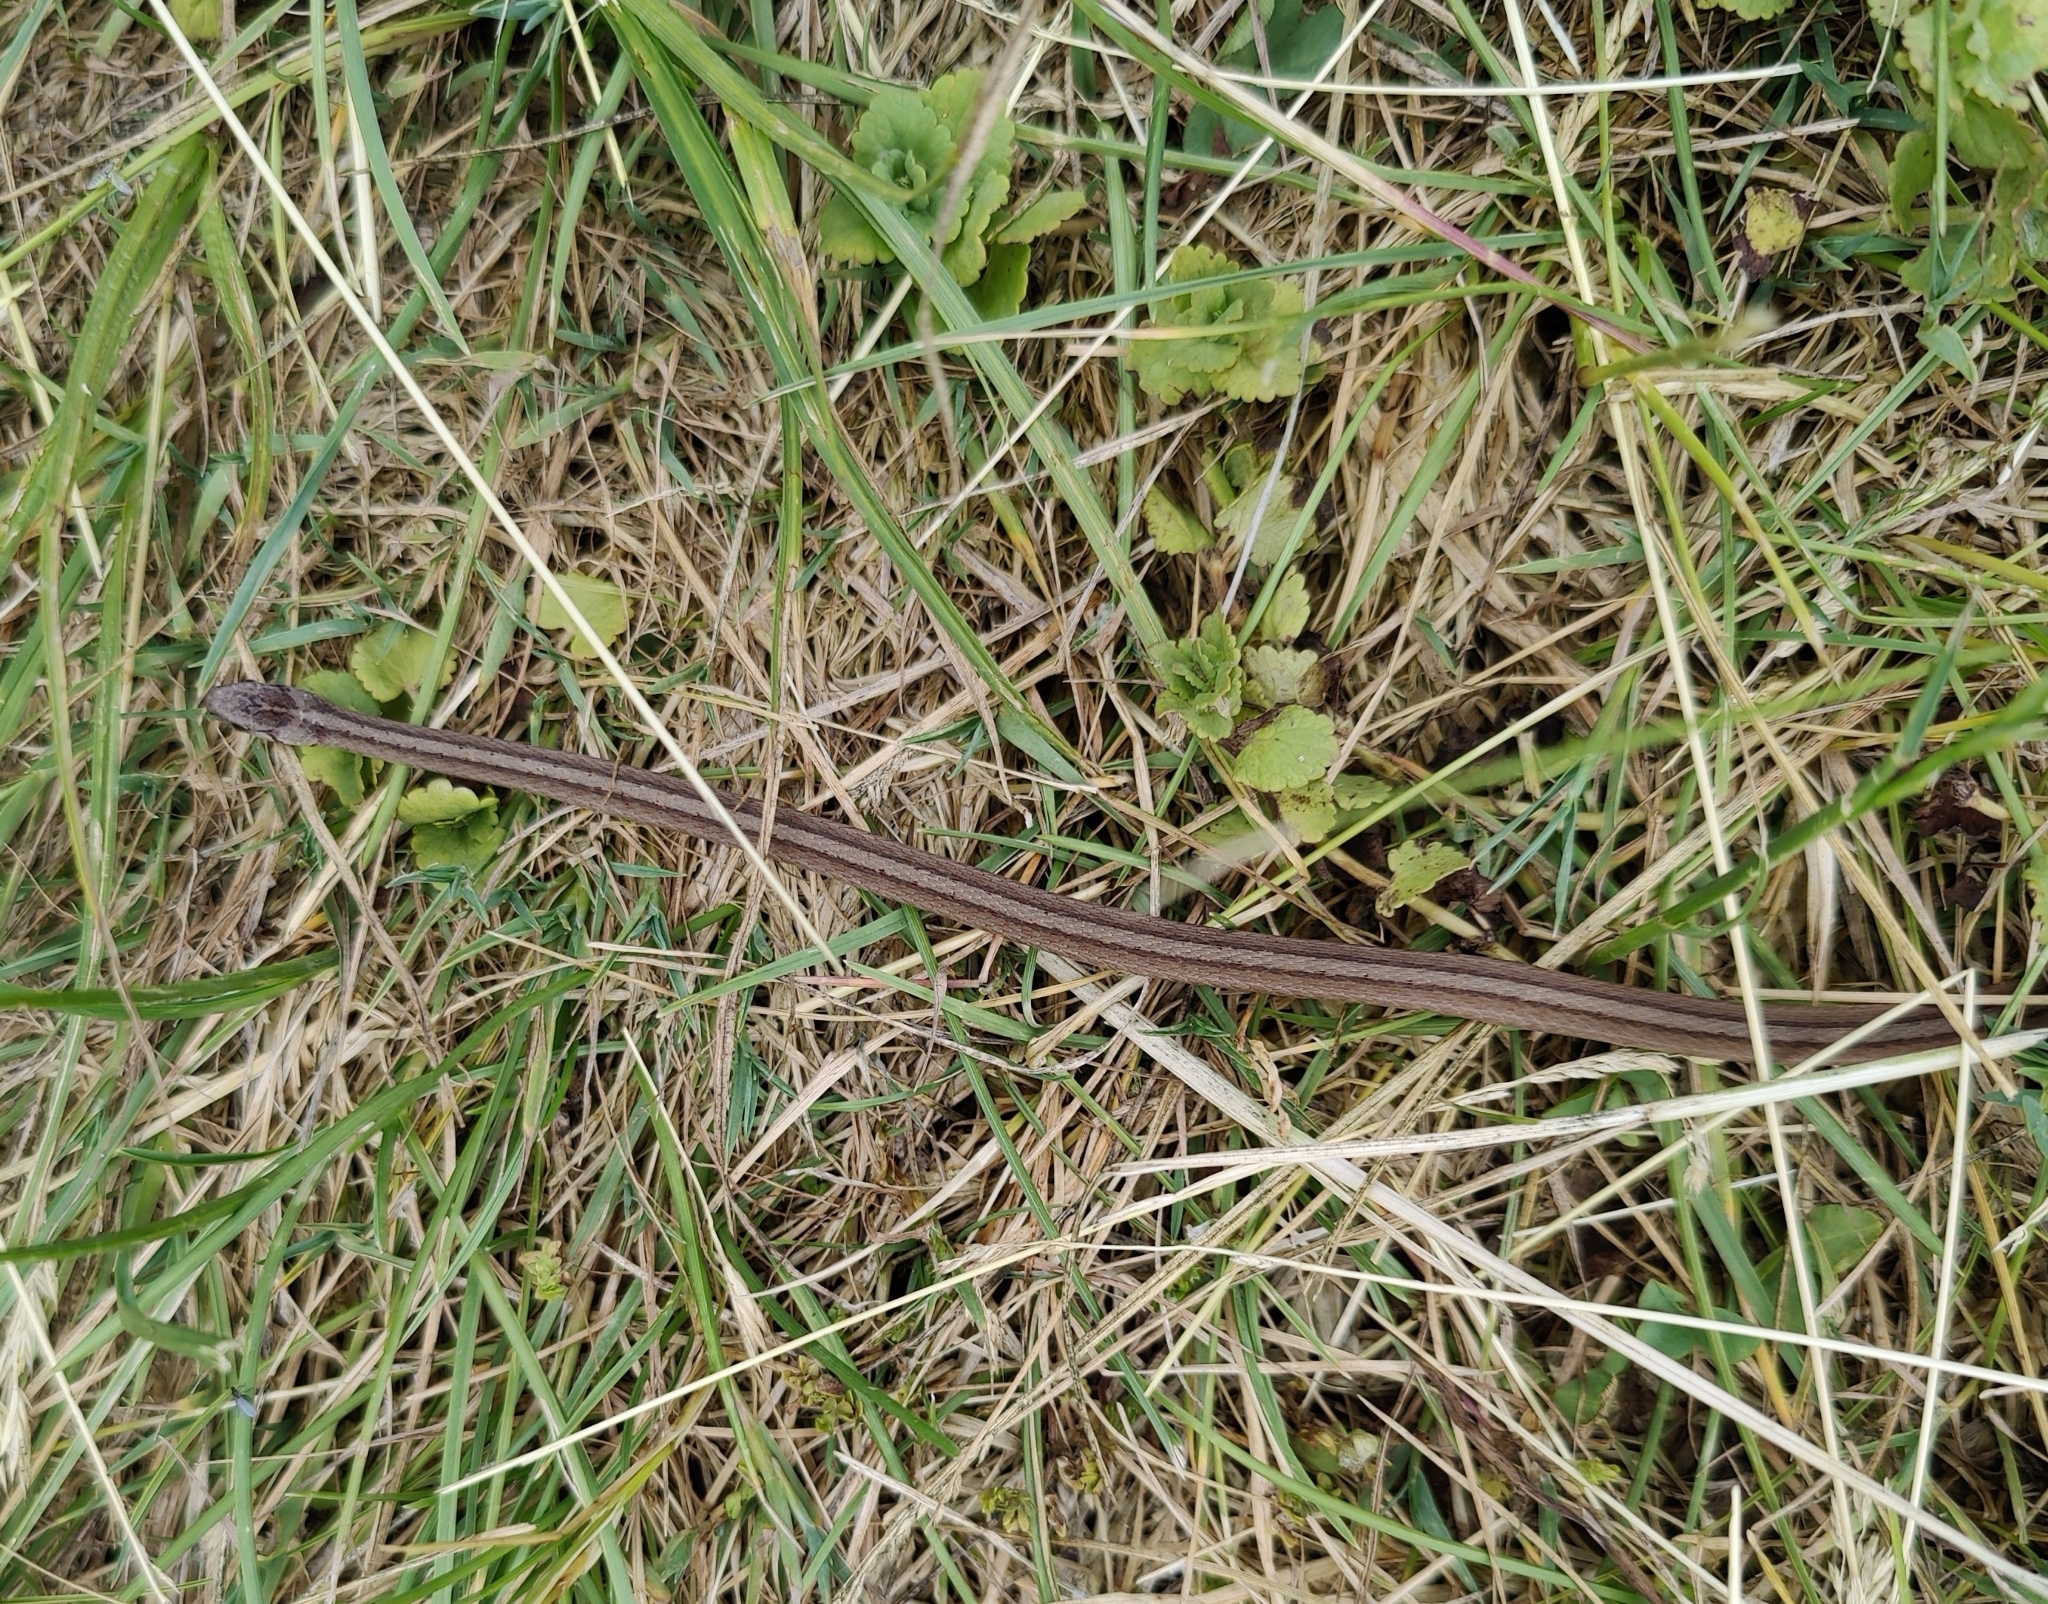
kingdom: Animalia
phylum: Chordata
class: Squamata
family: Colubridae
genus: Storeria
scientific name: Storeria dekayi
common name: (dekay’s) brown snake
